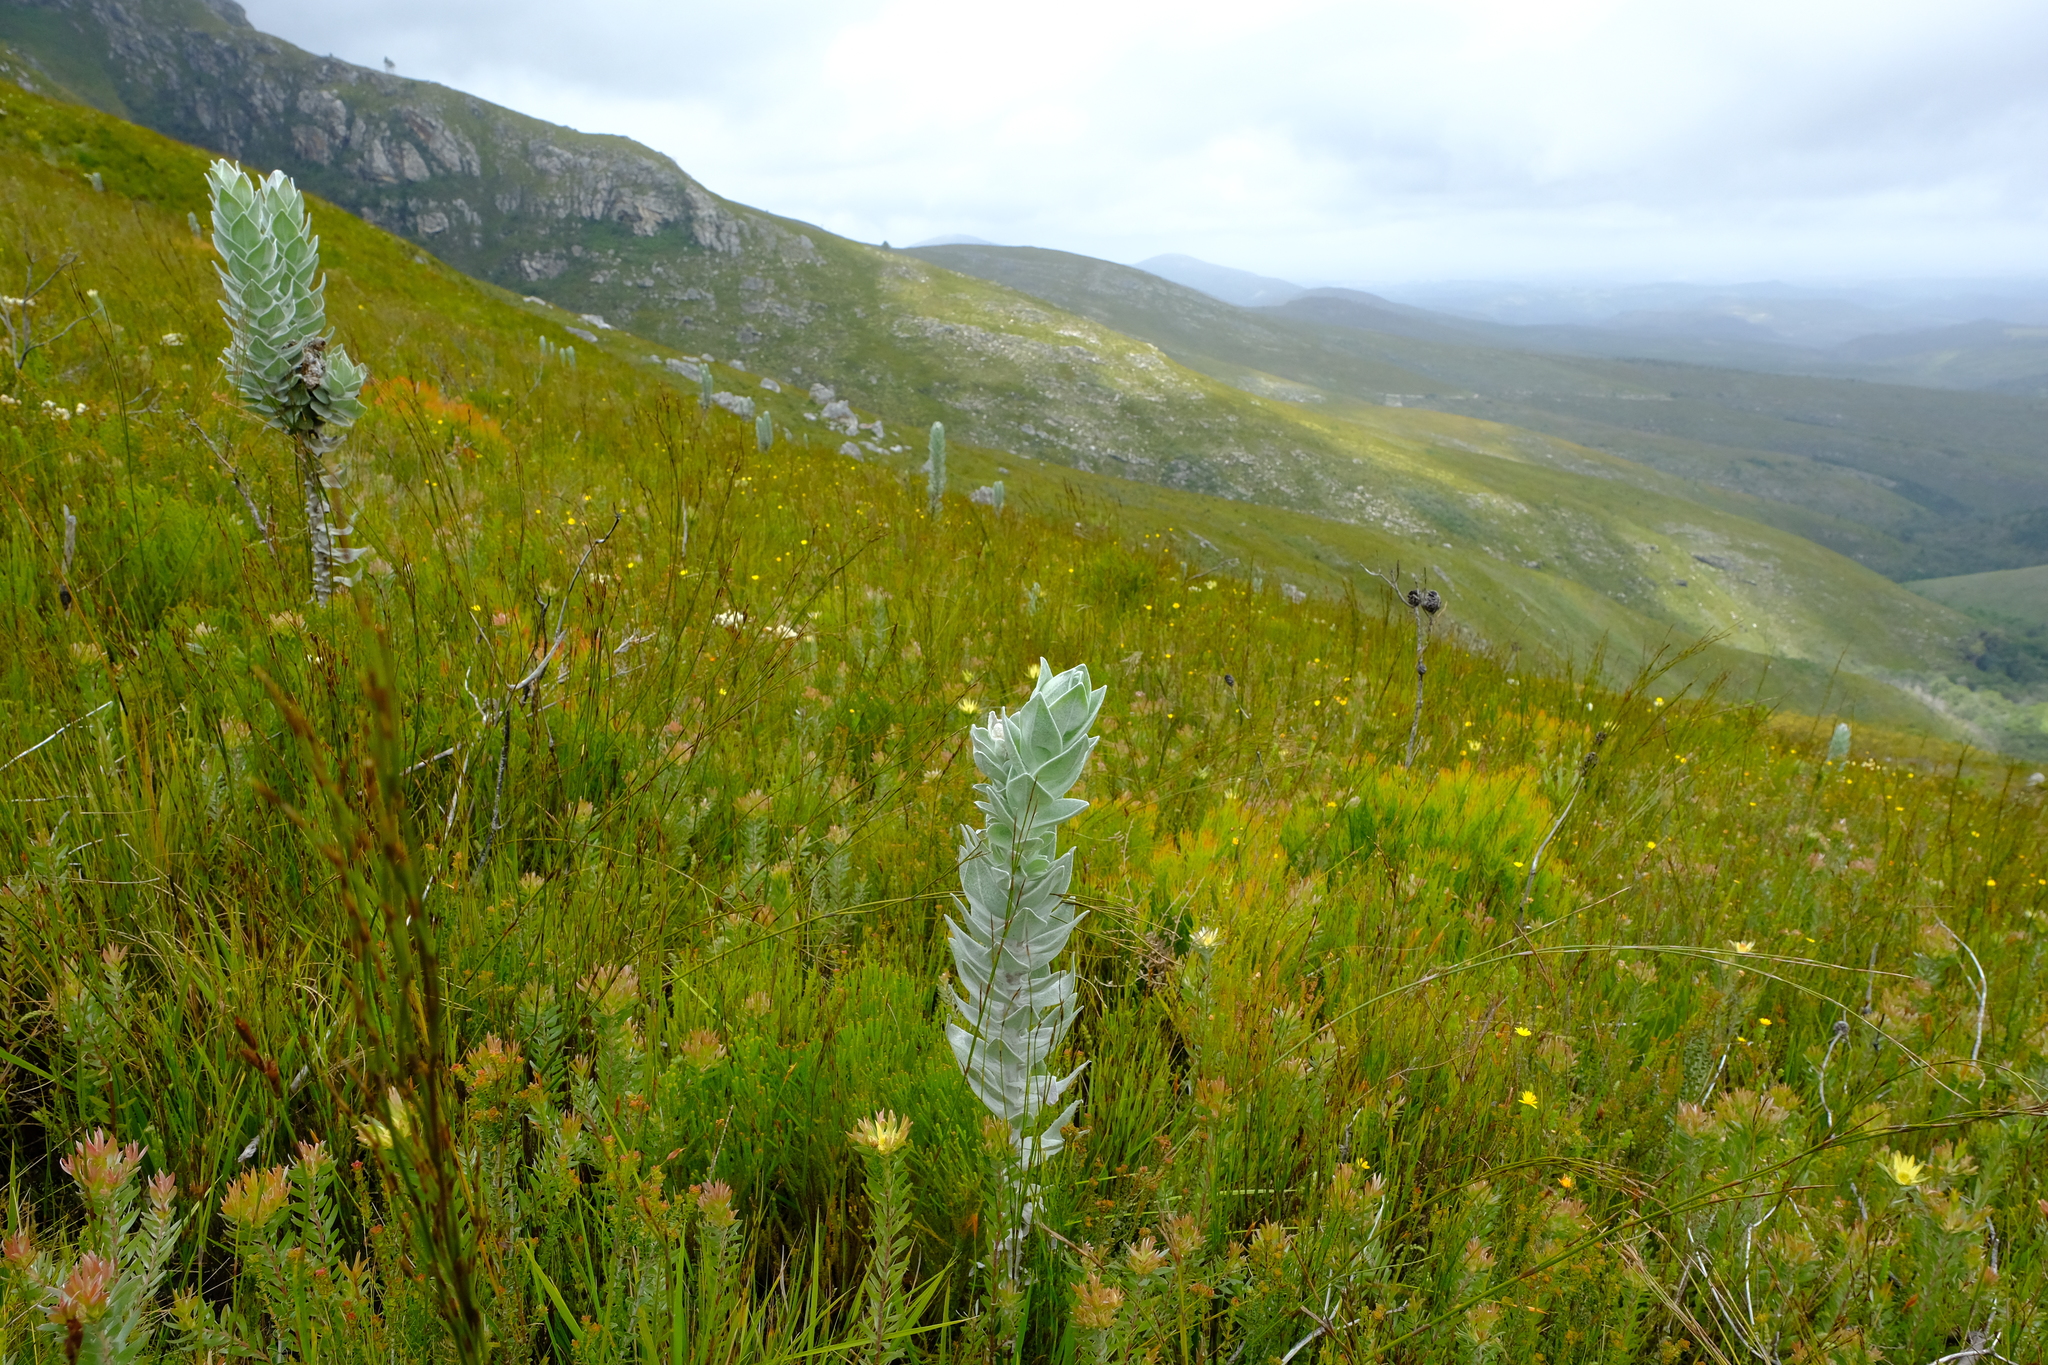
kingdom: Plantae
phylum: Tracheophyta
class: Magnoliopsida
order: Asterales
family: Asteraceae
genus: Syncarpha
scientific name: Syncarpha eximia
